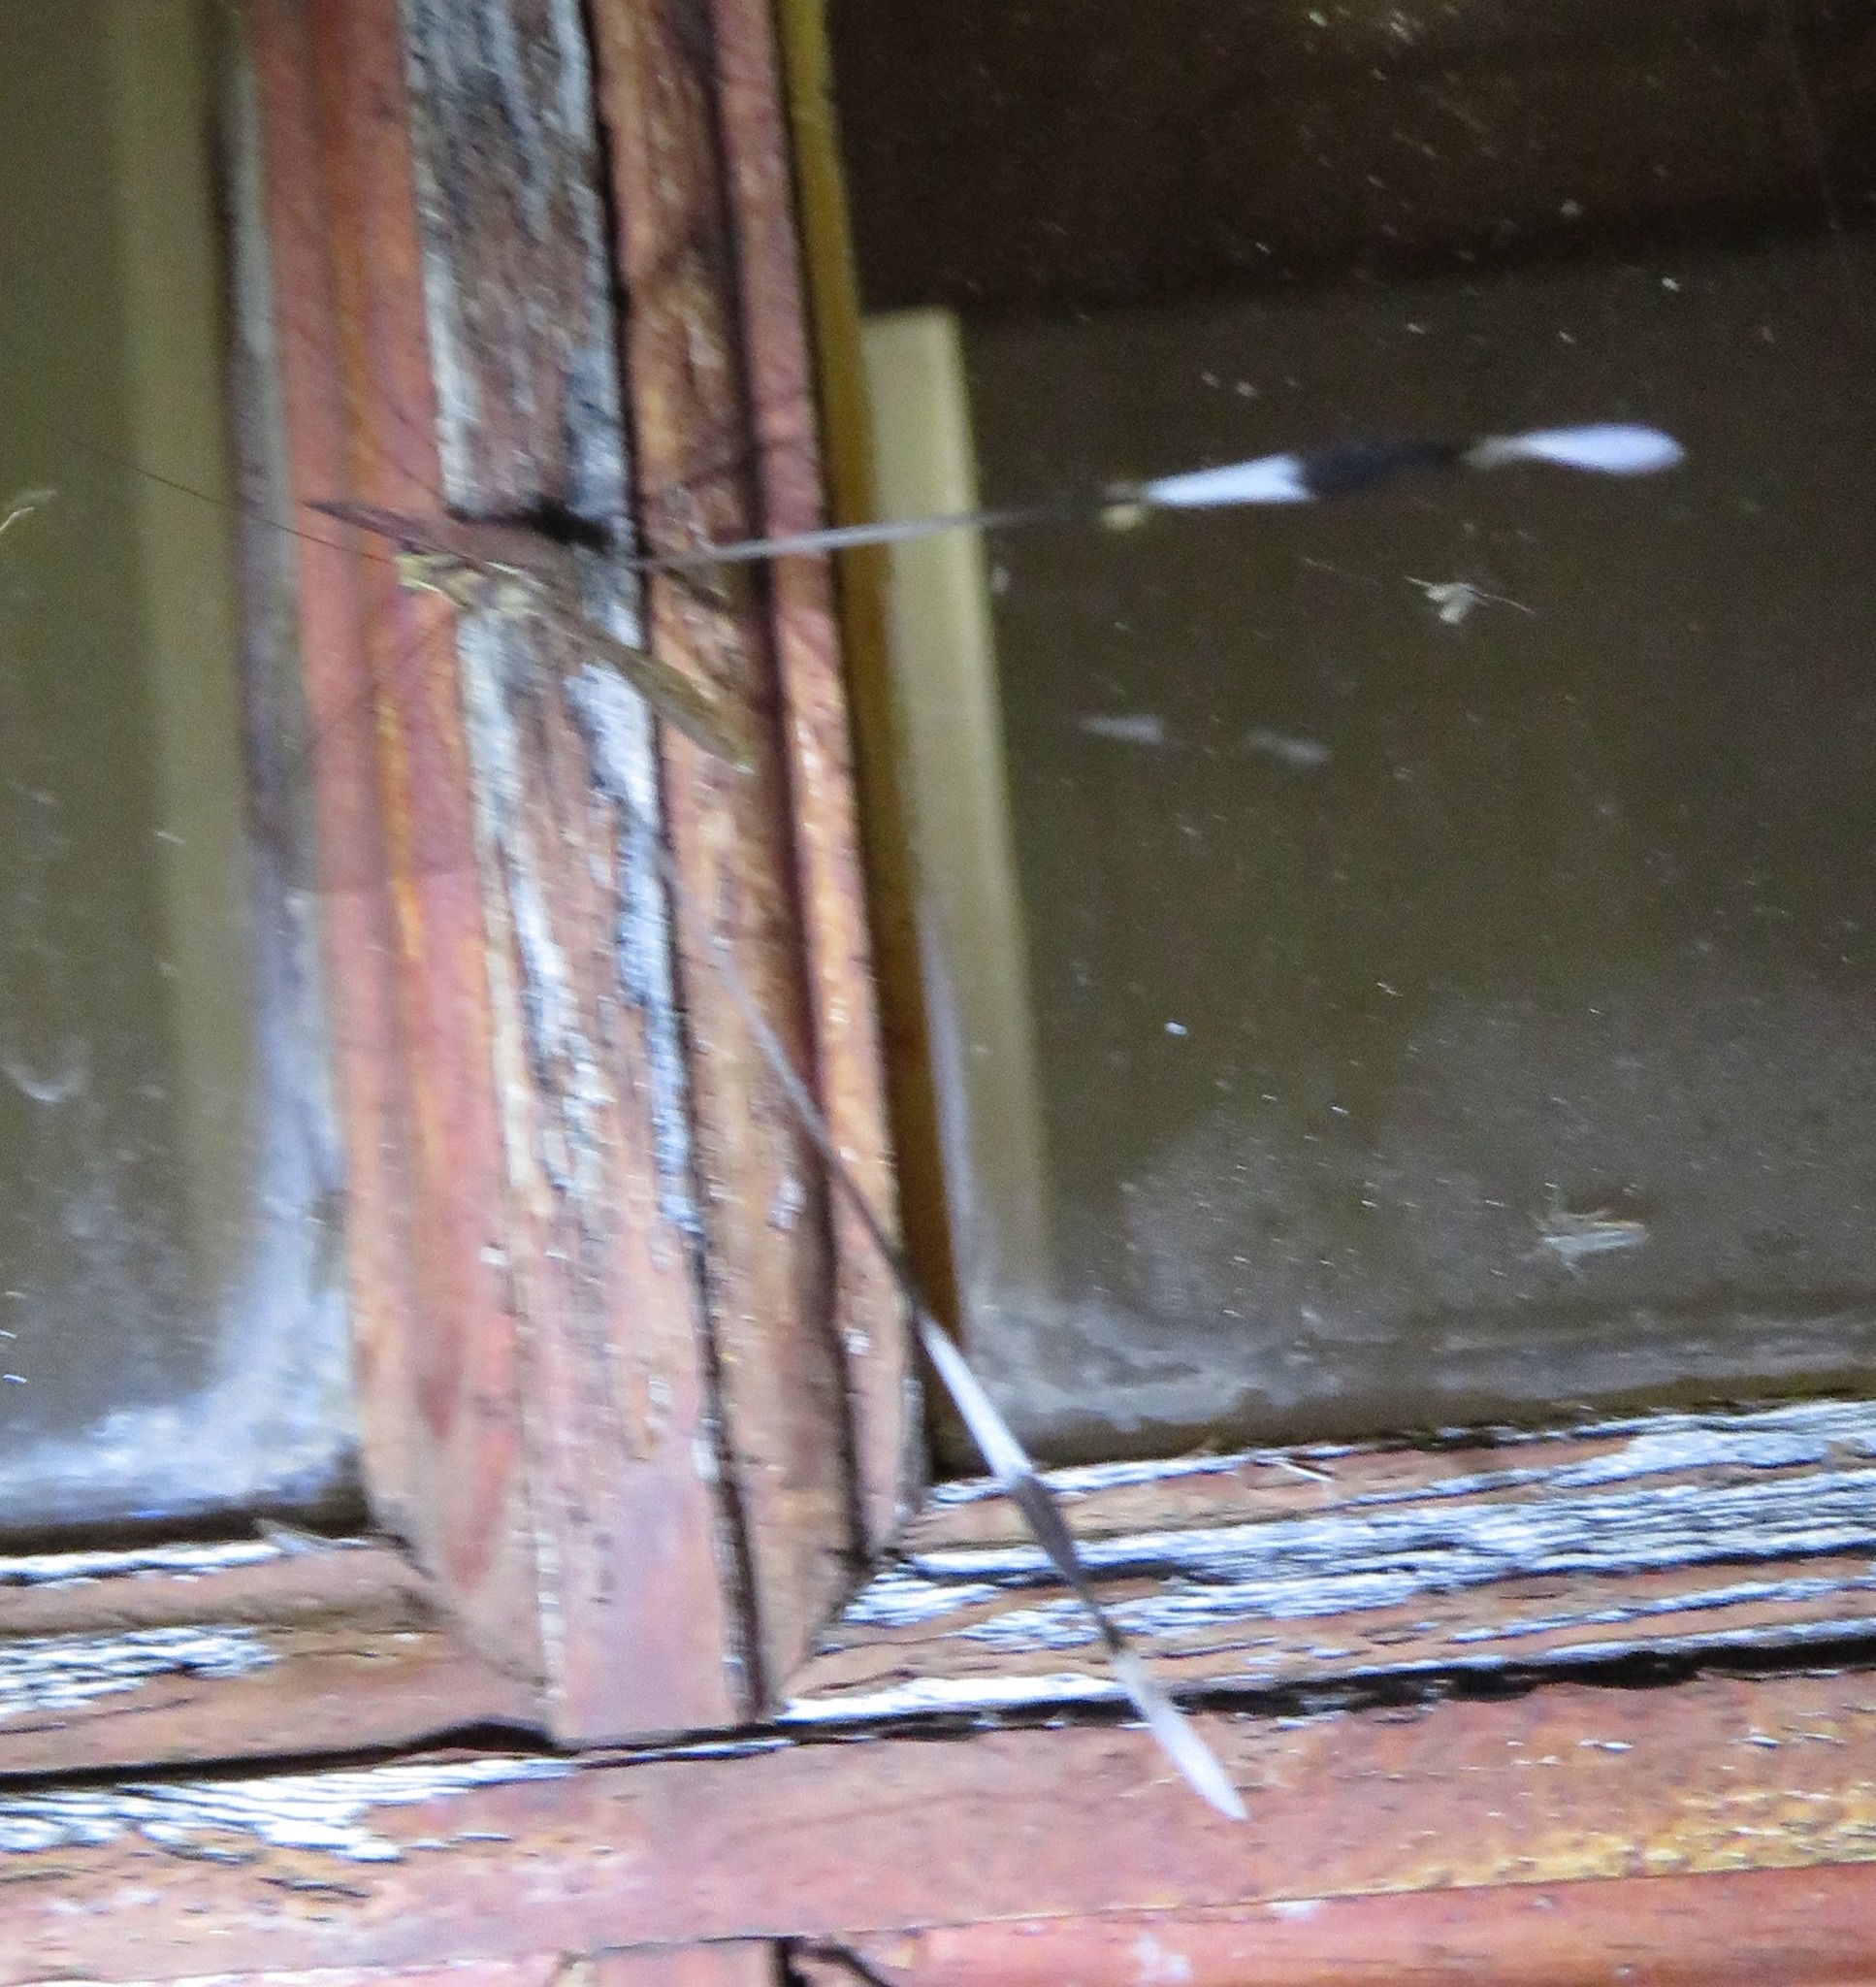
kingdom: Animalia
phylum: Arthropoda
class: Insecta
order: Neuroptera
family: Nemopteridae
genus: Nemeura
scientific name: Nemeura gracilis
